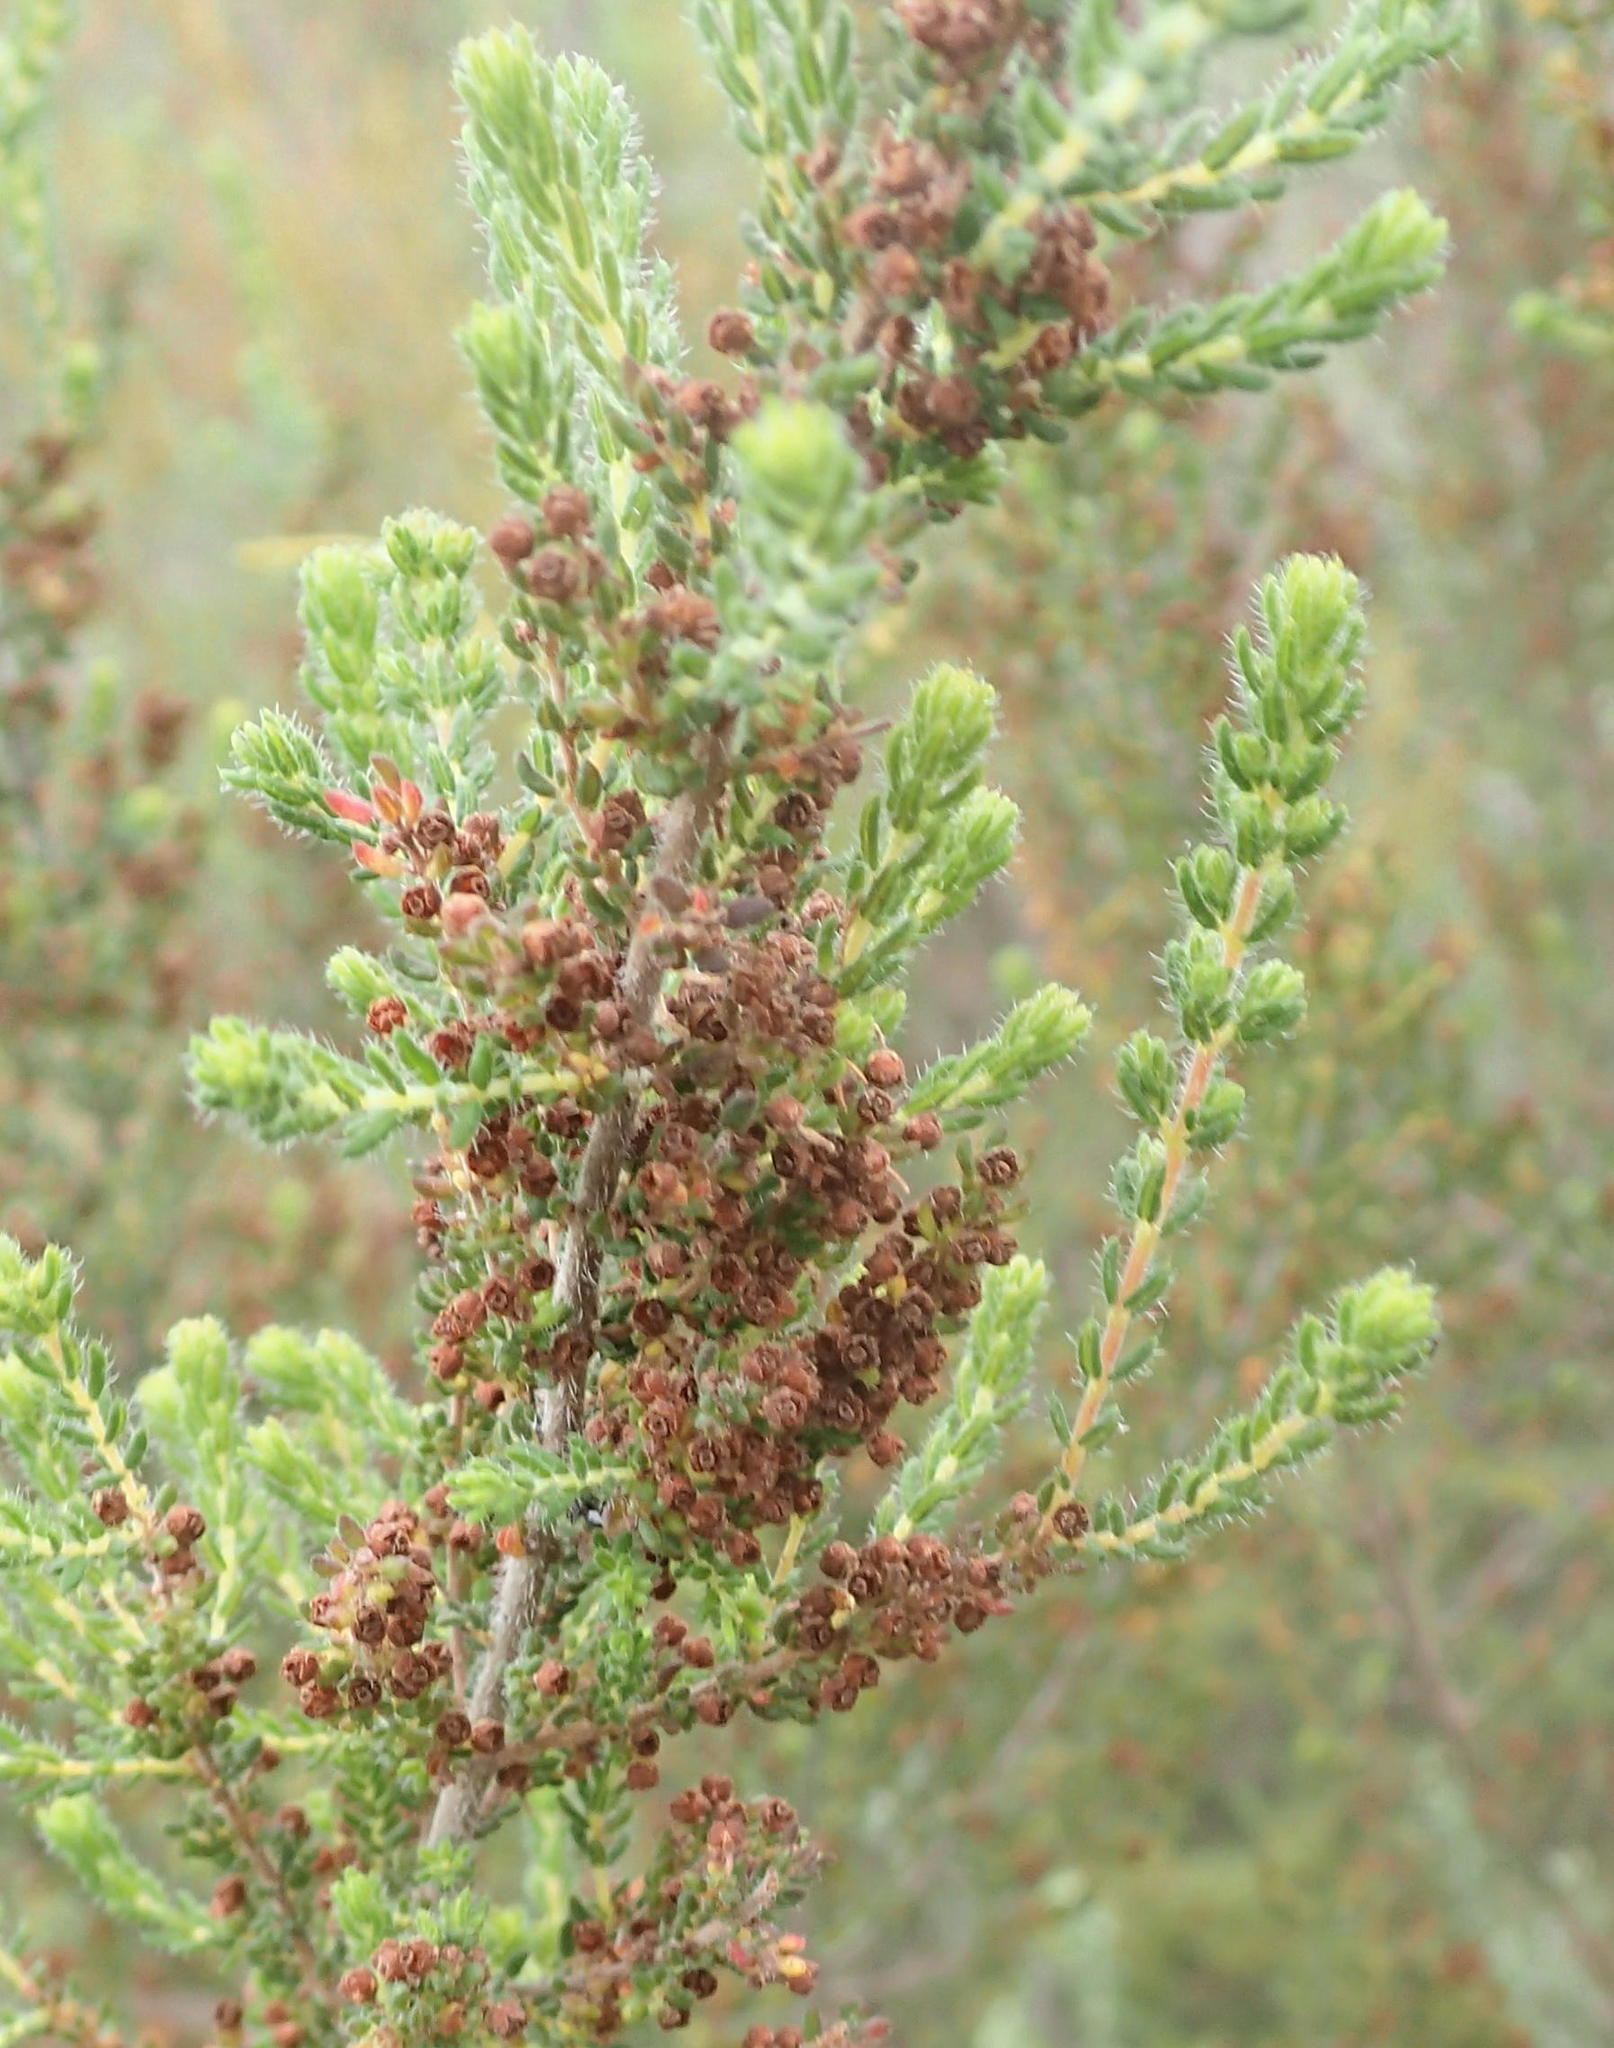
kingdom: Plantae
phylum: Tracheophyta
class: Magnoliopsida
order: Ericales
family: Ericaceae
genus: Erica
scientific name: Erica leucopelta
